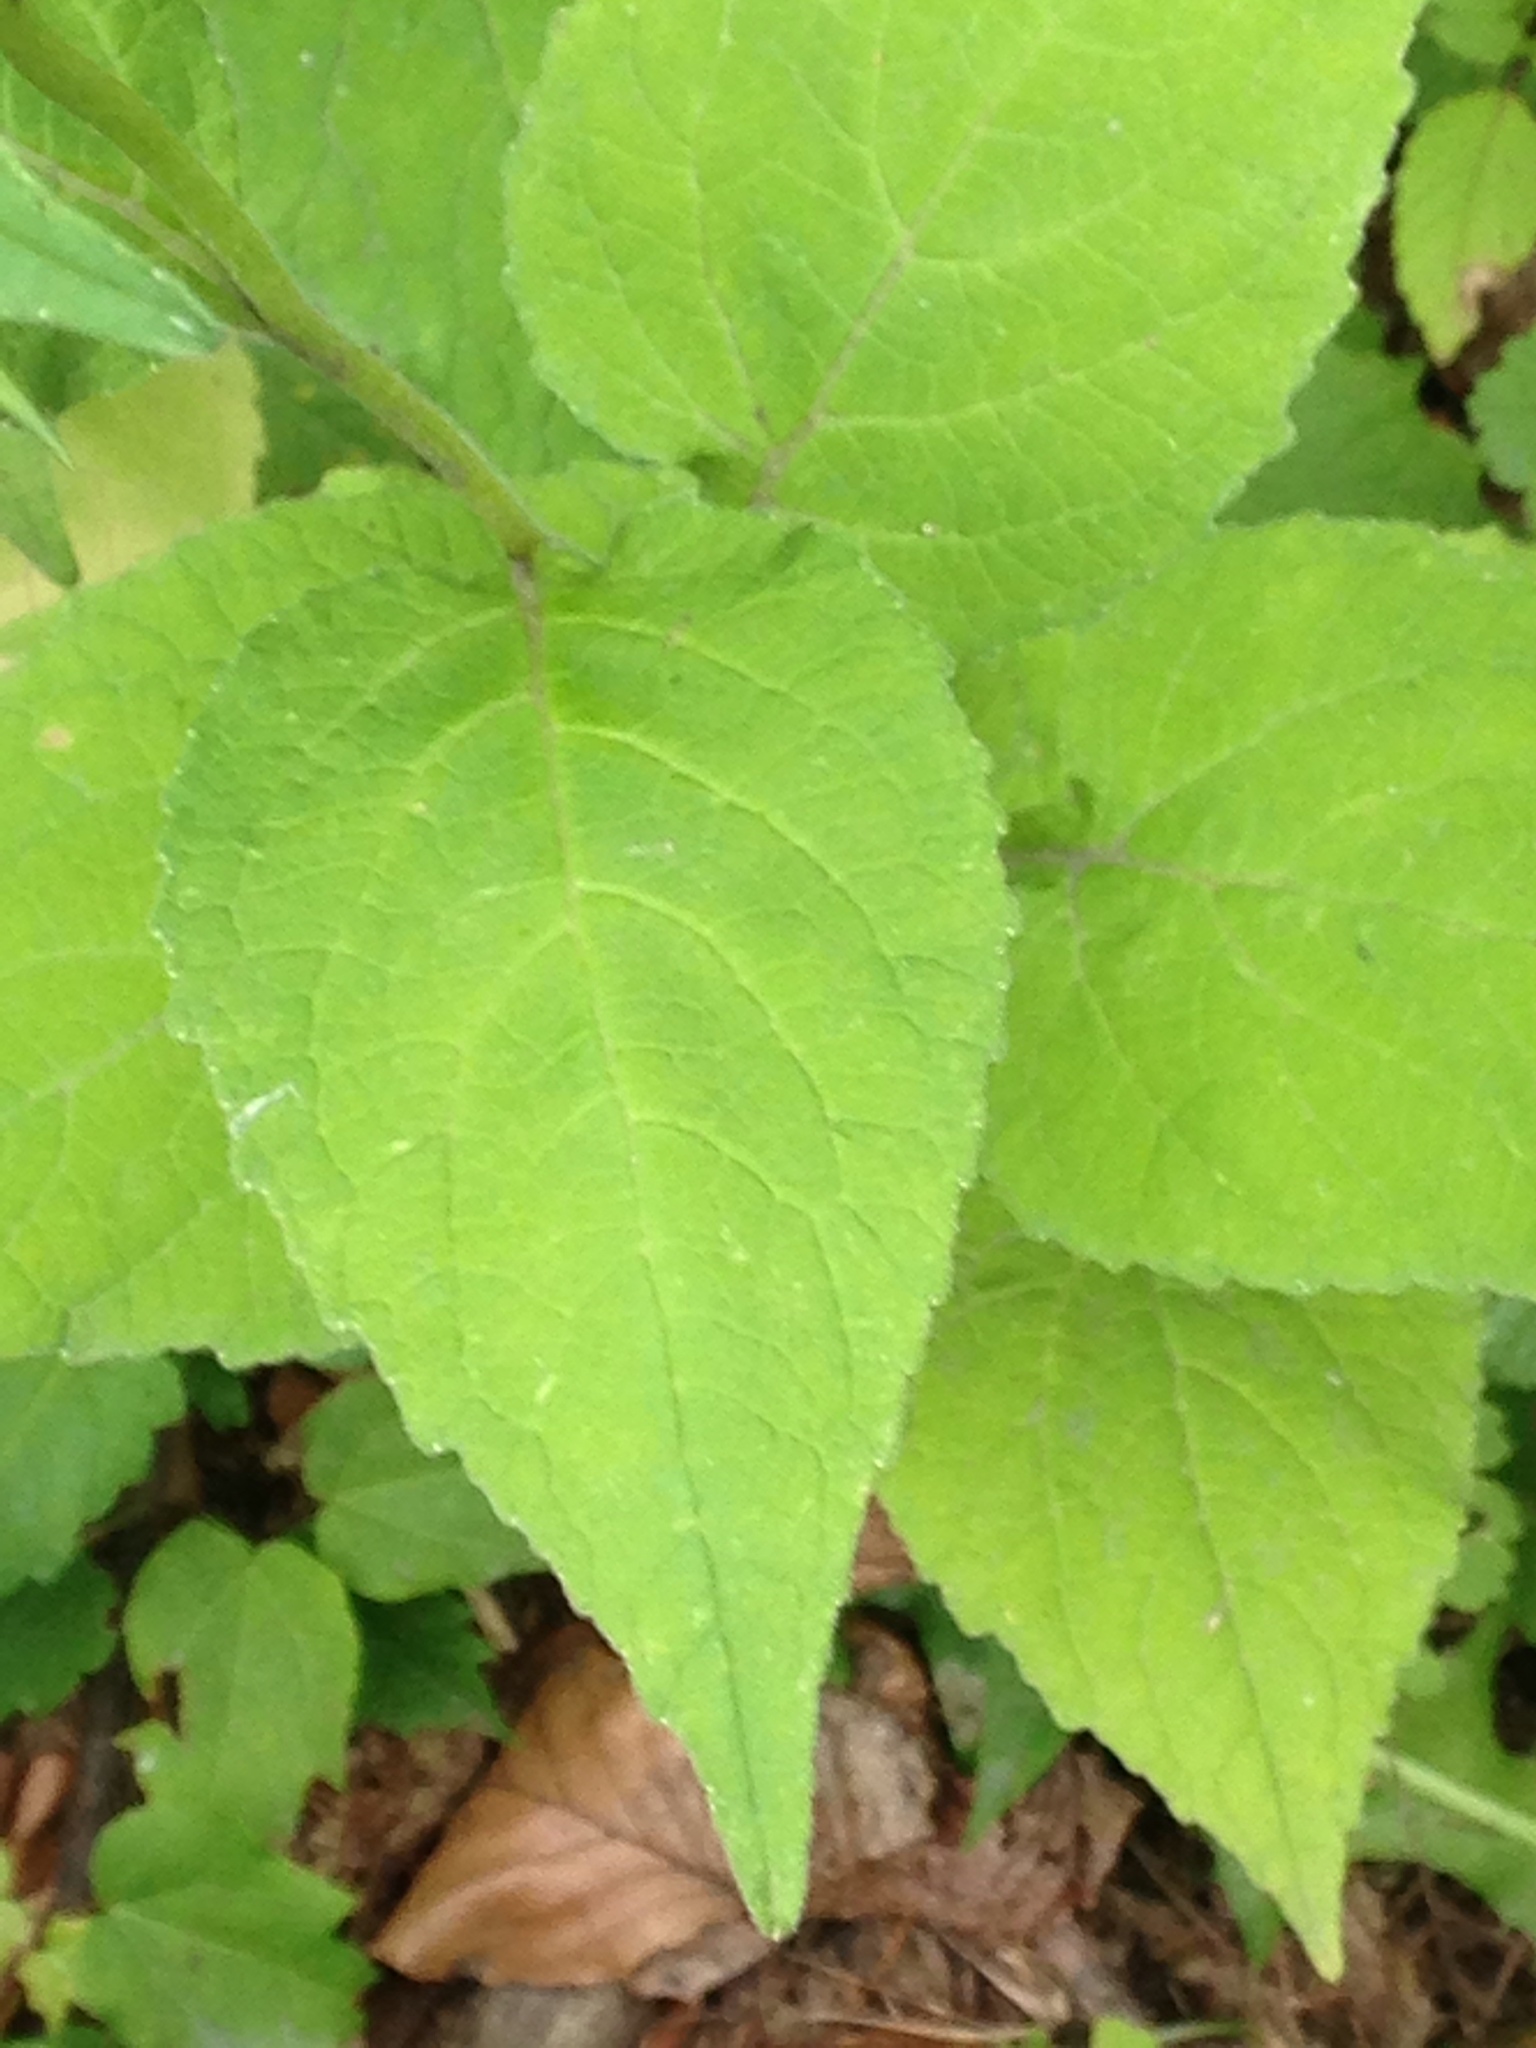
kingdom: Plantae
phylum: Tracheophyta
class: Magnoliopsida
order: Asterales
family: Campanulaceae
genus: Campanula
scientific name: Campanula latifolia
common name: Giant bellflower
